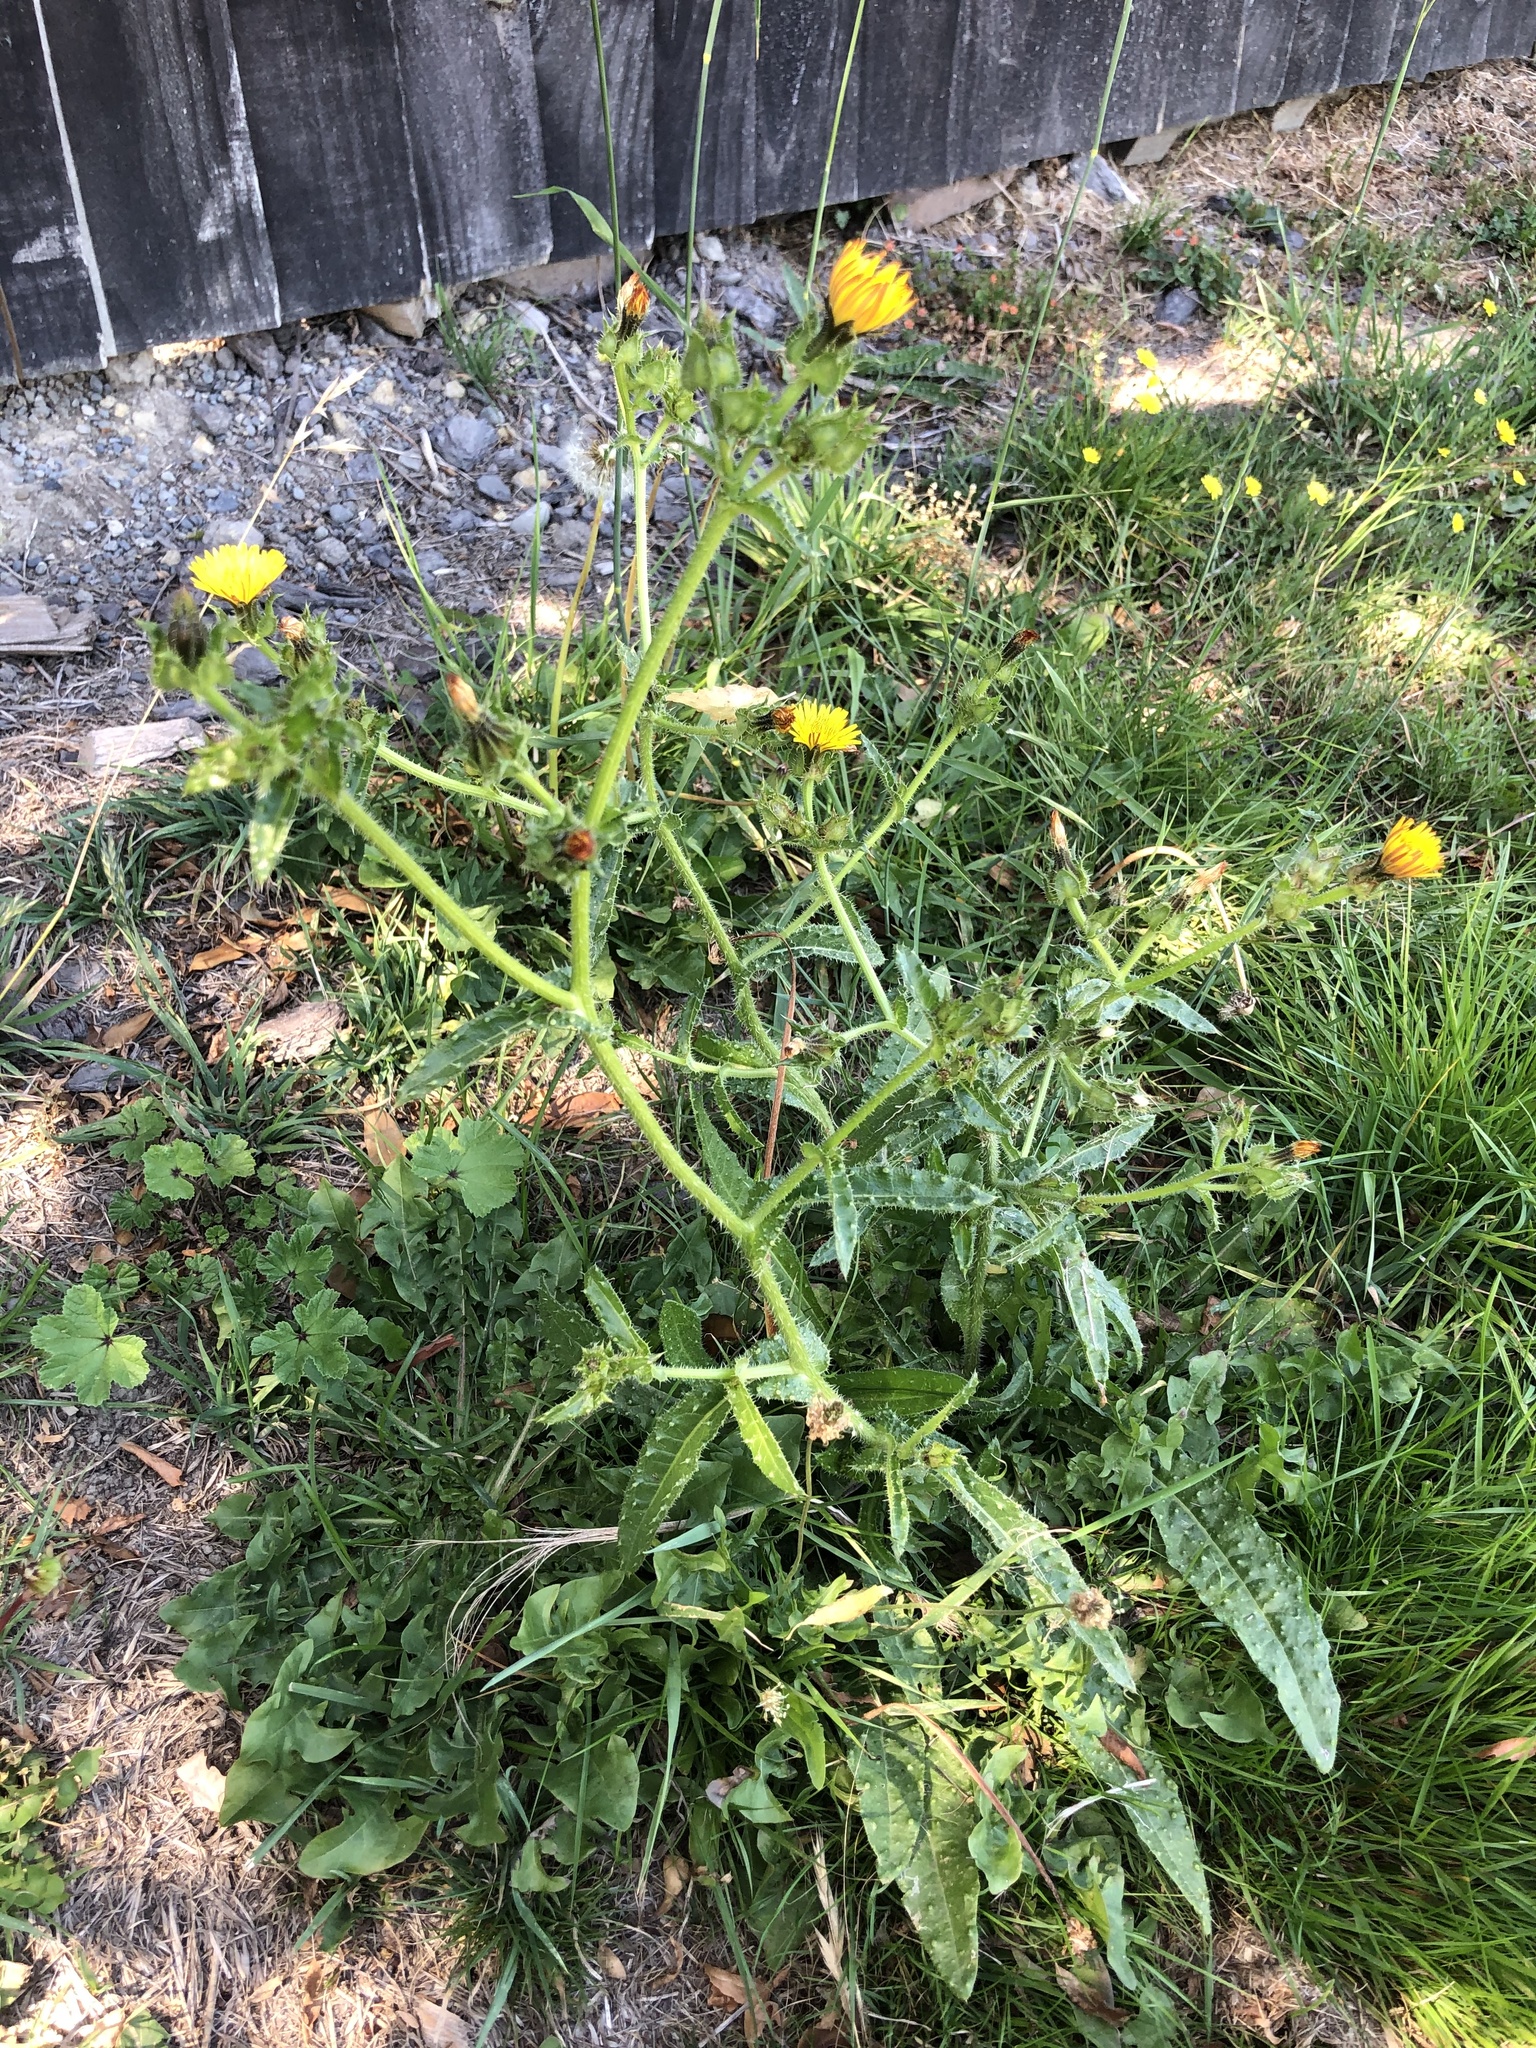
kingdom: Plantae
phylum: Tracheophyta
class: Magnoliopsida
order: Asterales
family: Asteraceae
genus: Helminthotheca
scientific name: Helminthotheca echioides
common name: Ox-tongue
